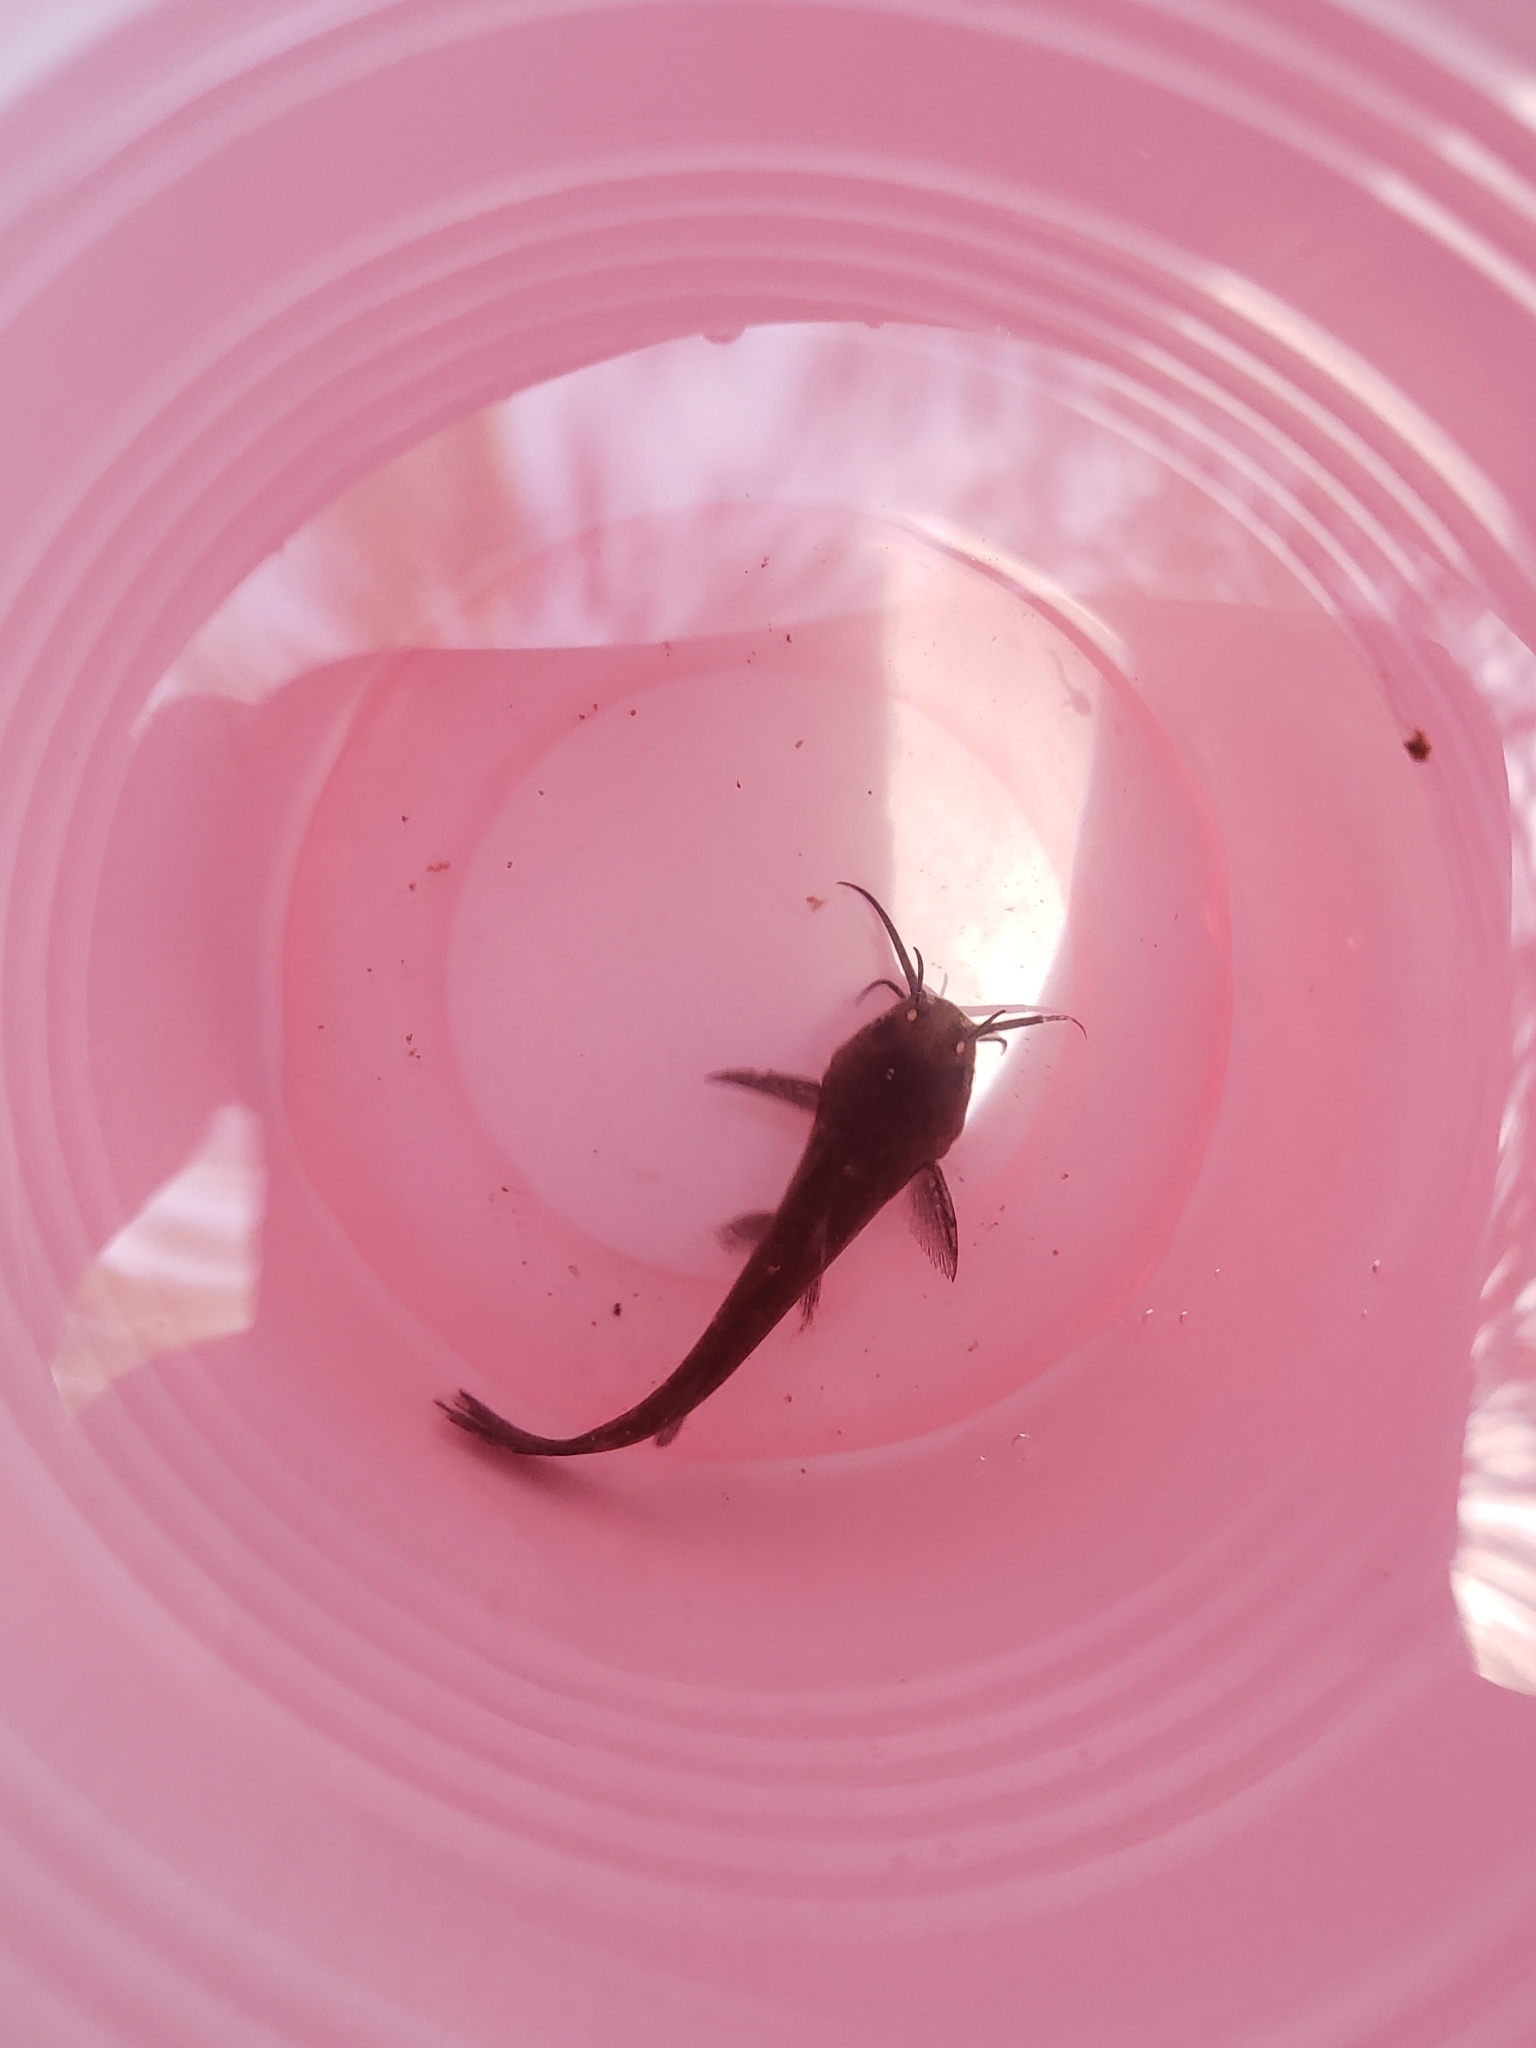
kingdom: Animalia
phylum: Chordata
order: Siluriformes
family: Ictaluridae
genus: Ameiurus
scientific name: Ameiurus nebulosus
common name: Brown bullhead
